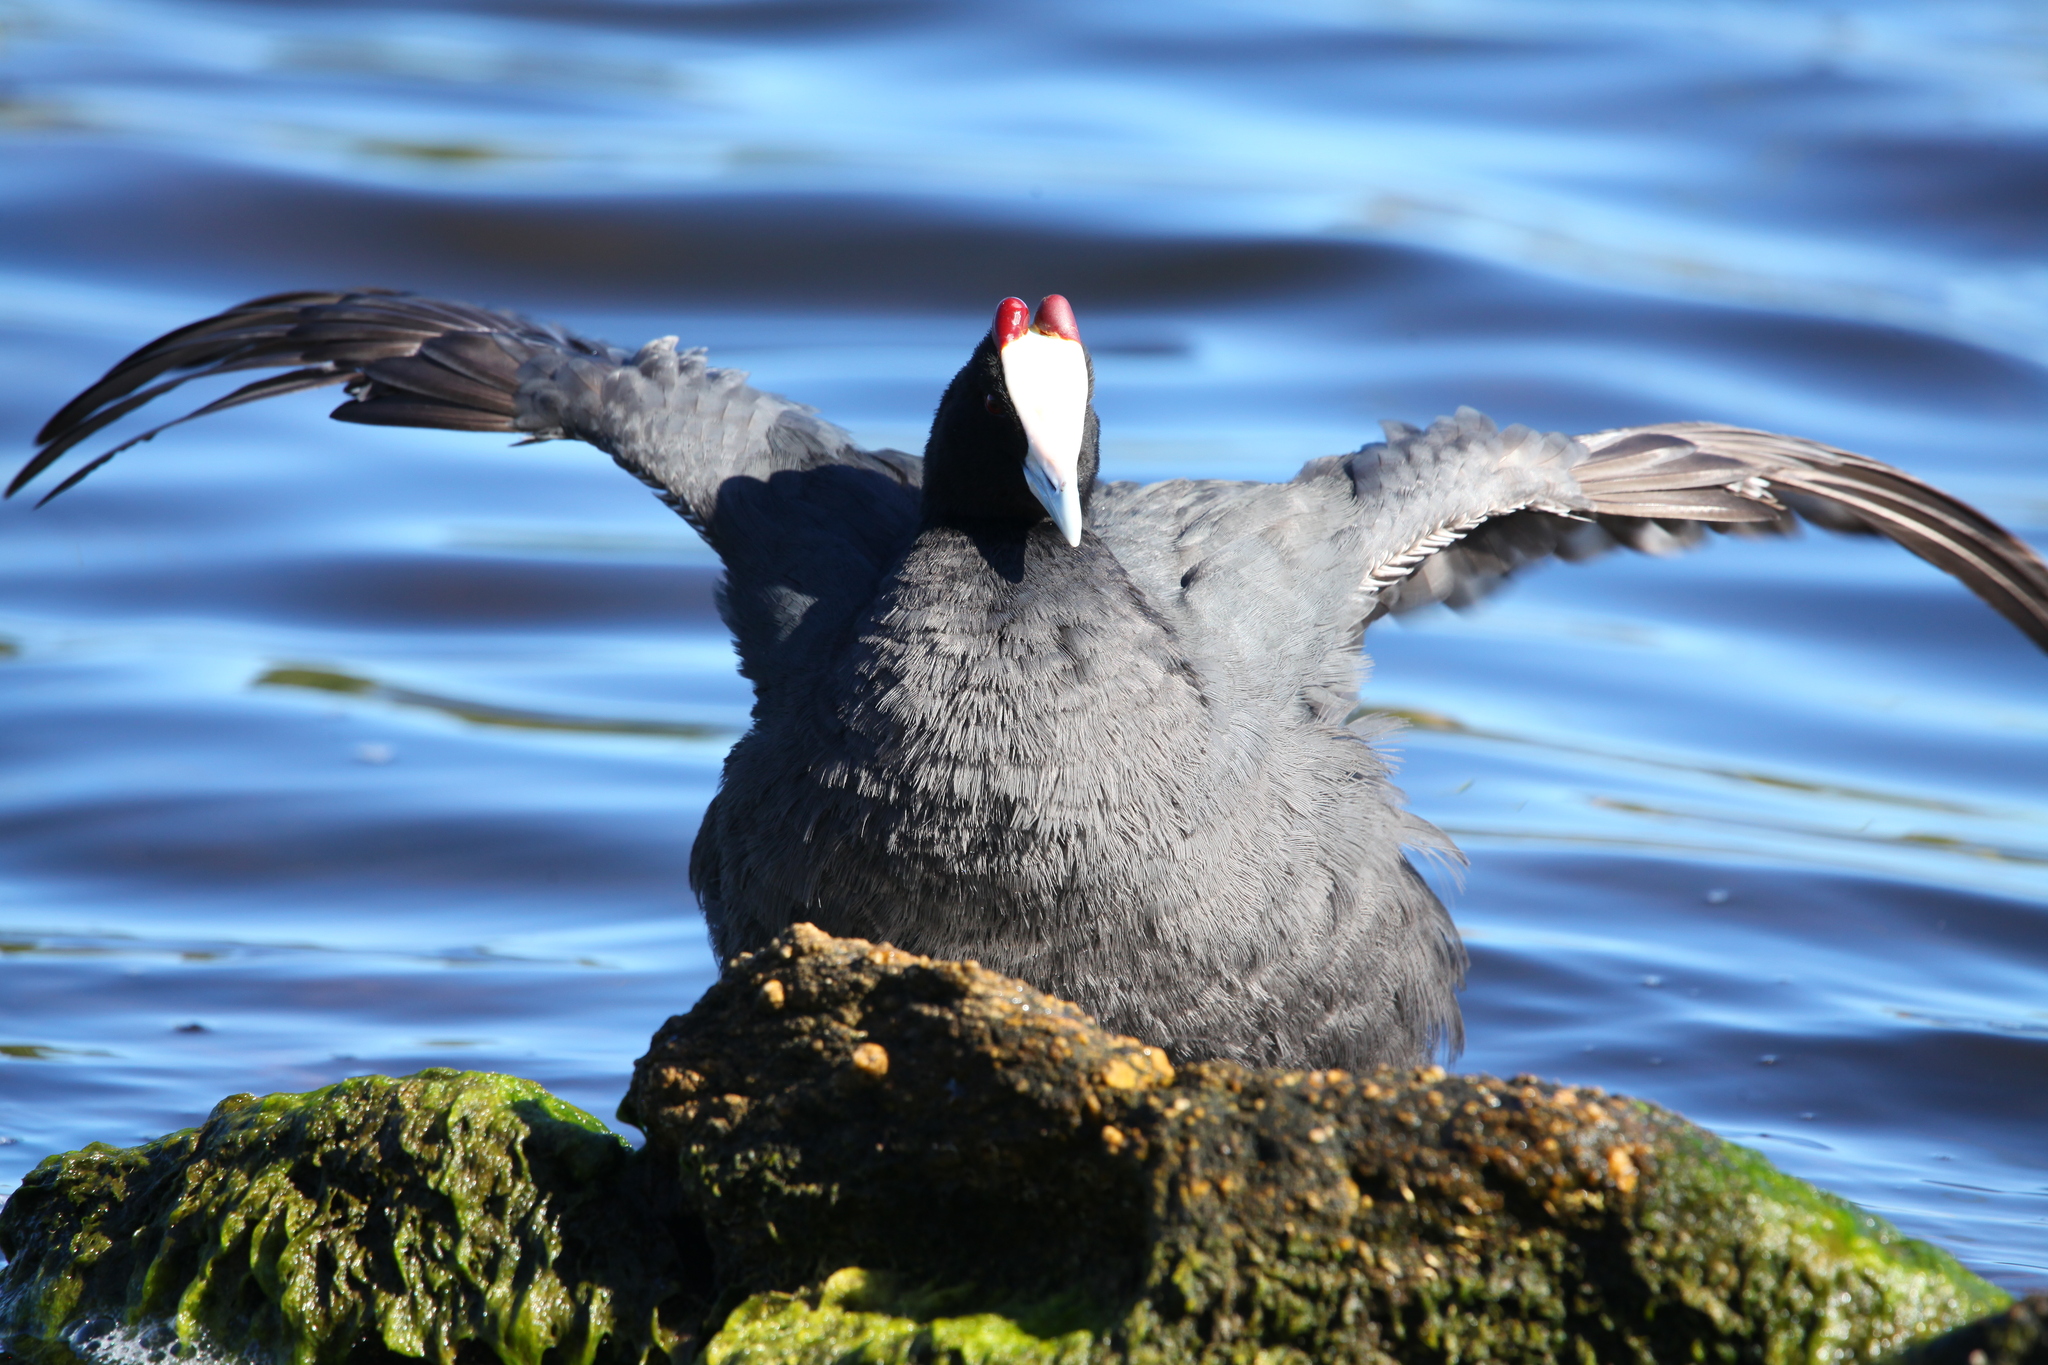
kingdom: Animalia
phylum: Chordata
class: Aves
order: Gruiformes
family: Rallidae
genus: Fulica
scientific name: Fulica cristata
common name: Red-knobbed coot
